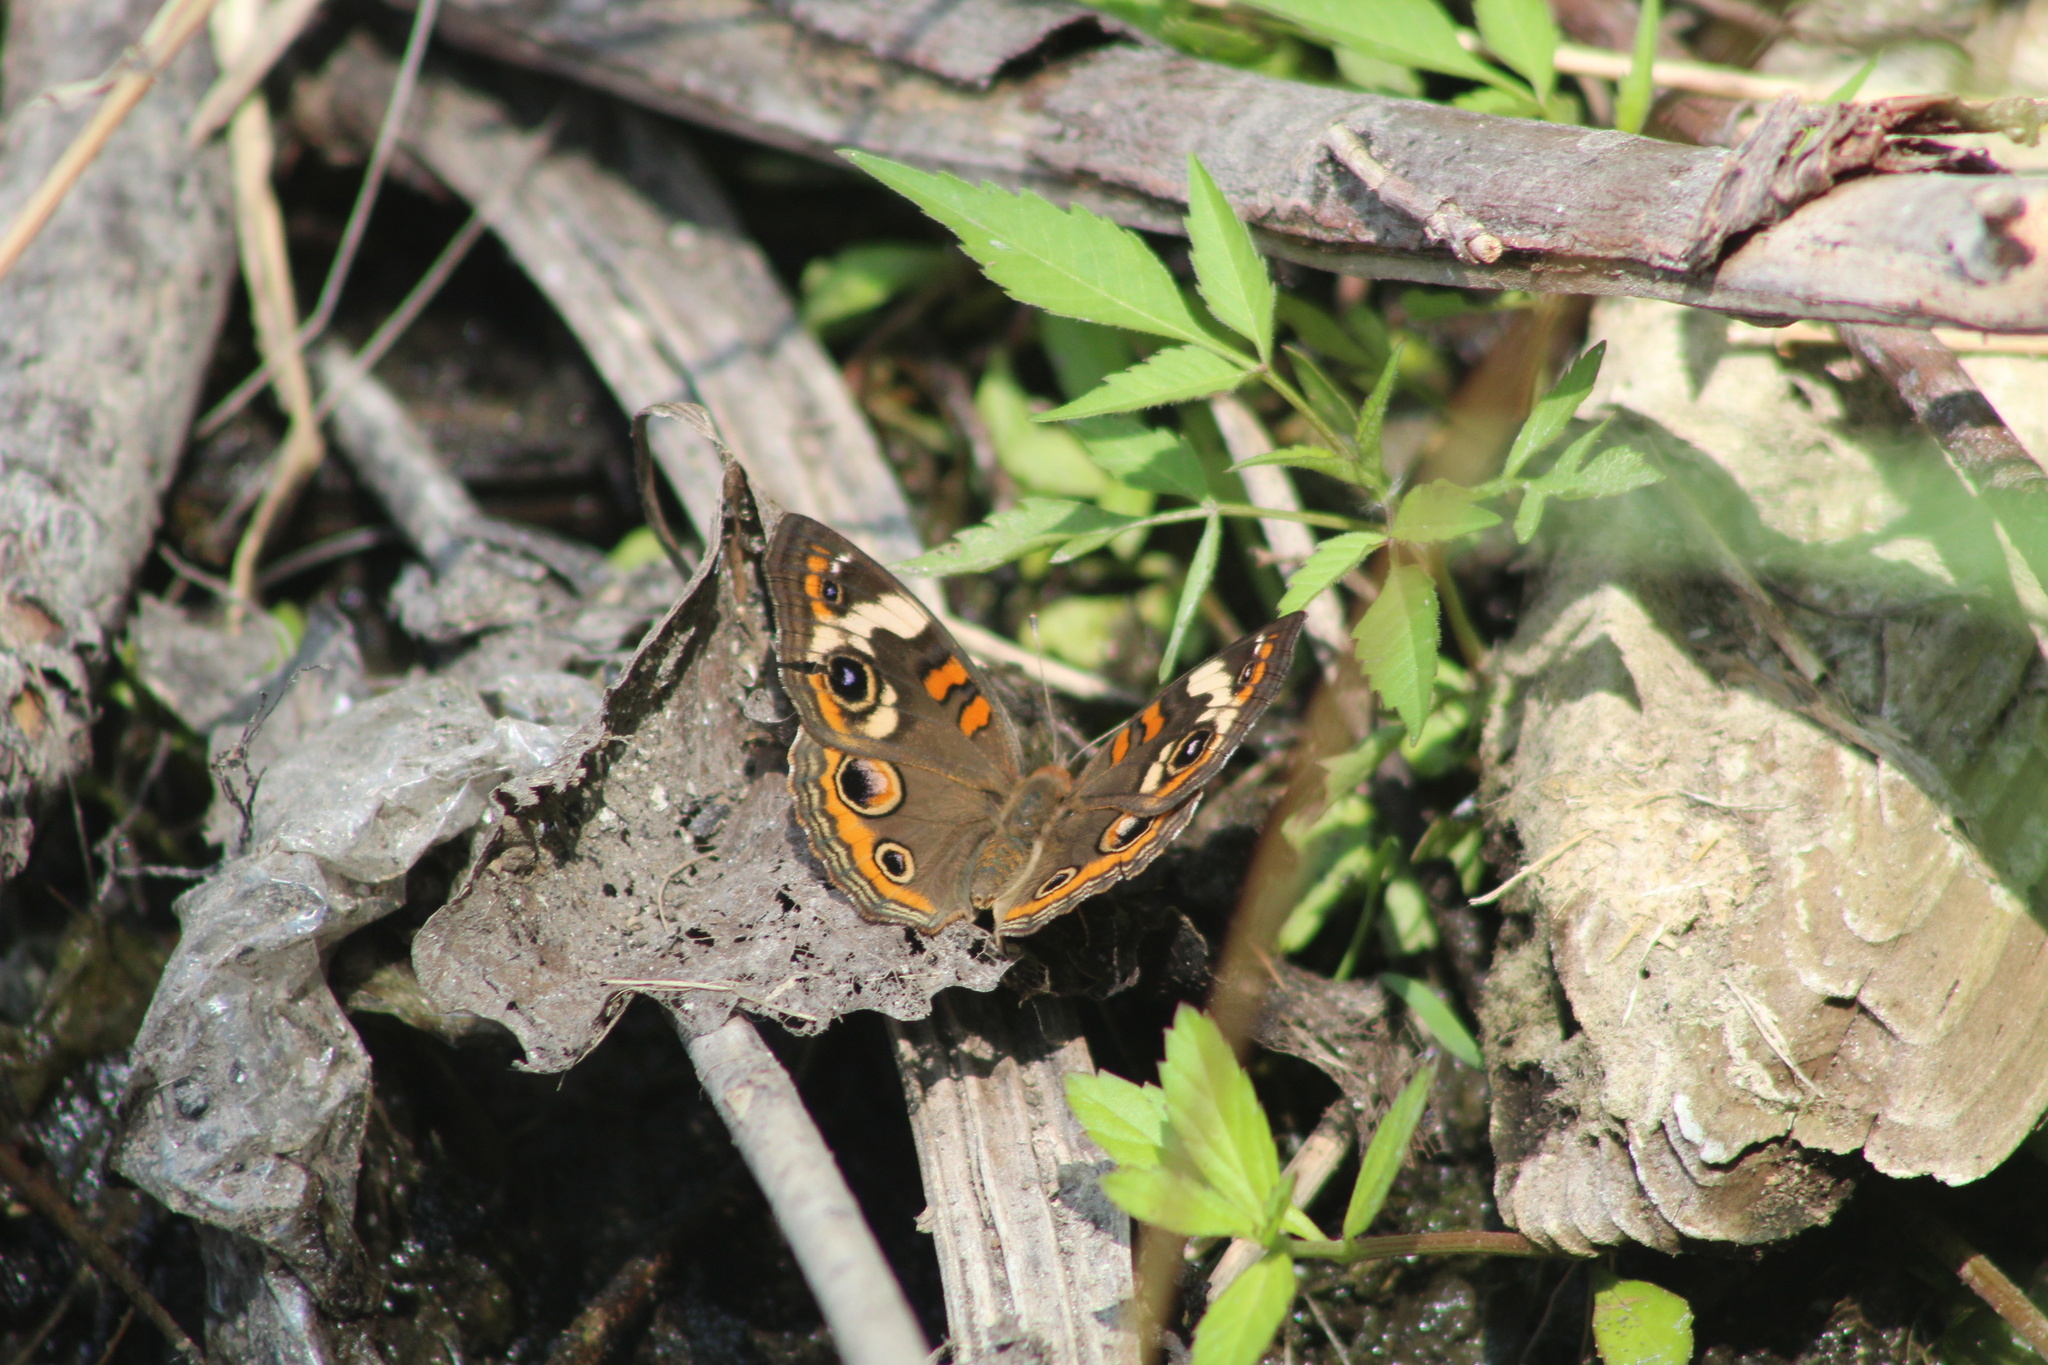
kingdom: Animalia
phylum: Arthropoda
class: Insecta
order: Lepidoptera
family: Nymphalidae
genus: Junonia
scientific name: Junonia coenia
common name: Common buckeye
